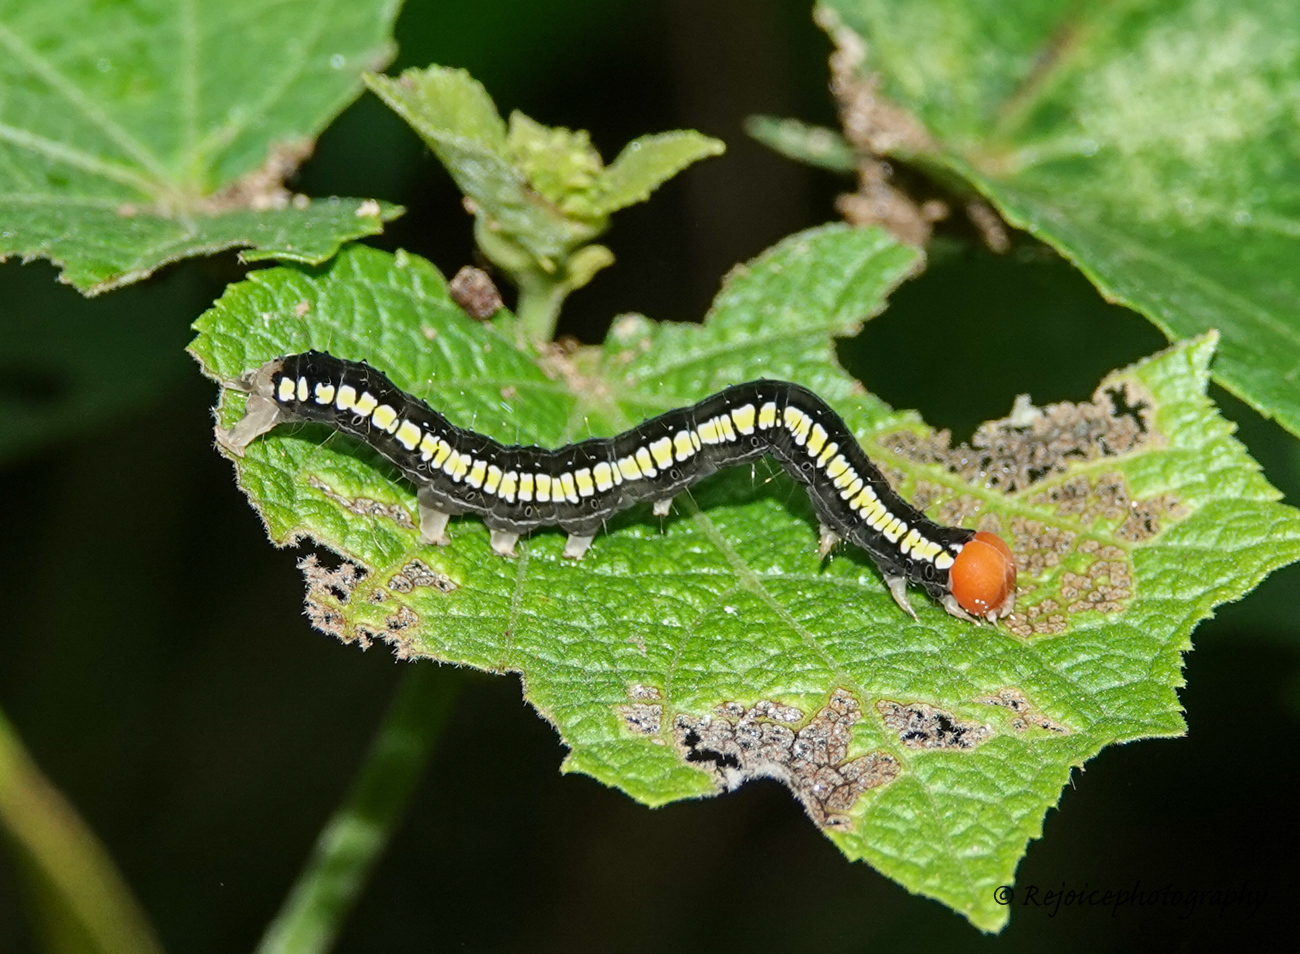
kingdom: Animalia
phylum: Arthropoda
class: Insecta
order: Lepidoptera
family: Erebidae
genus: Rusicada
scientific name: Rusicada combinans
